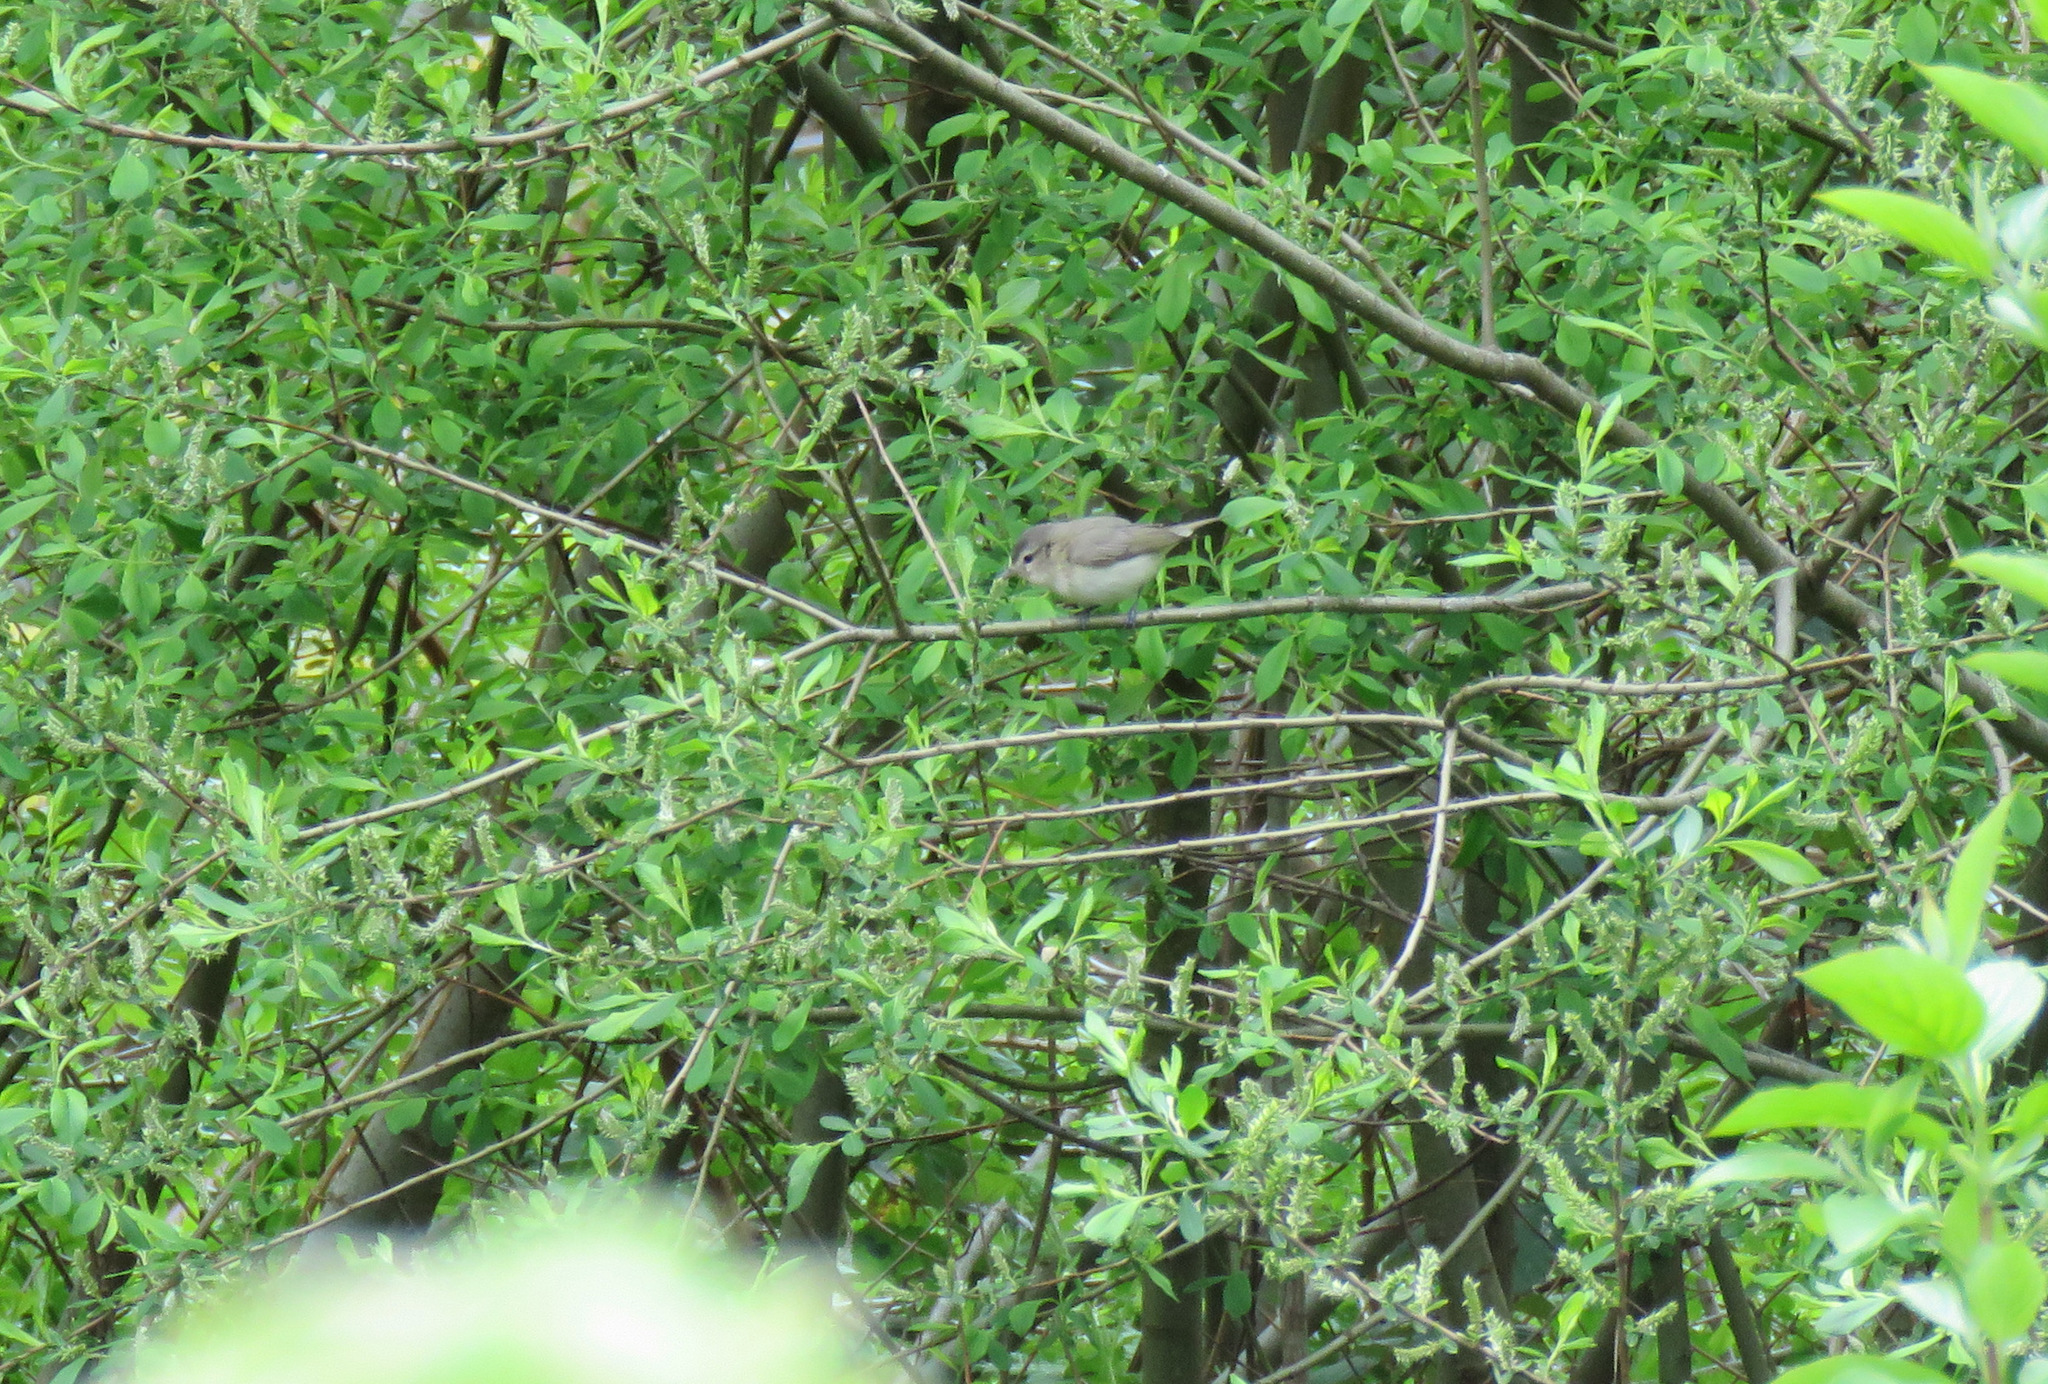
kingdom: Animalia
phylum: Chordata
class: Aves
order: Passeriformes
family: Vireonidae
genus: Vireo
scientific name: Vireo gilvus
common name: Warbling vireo
